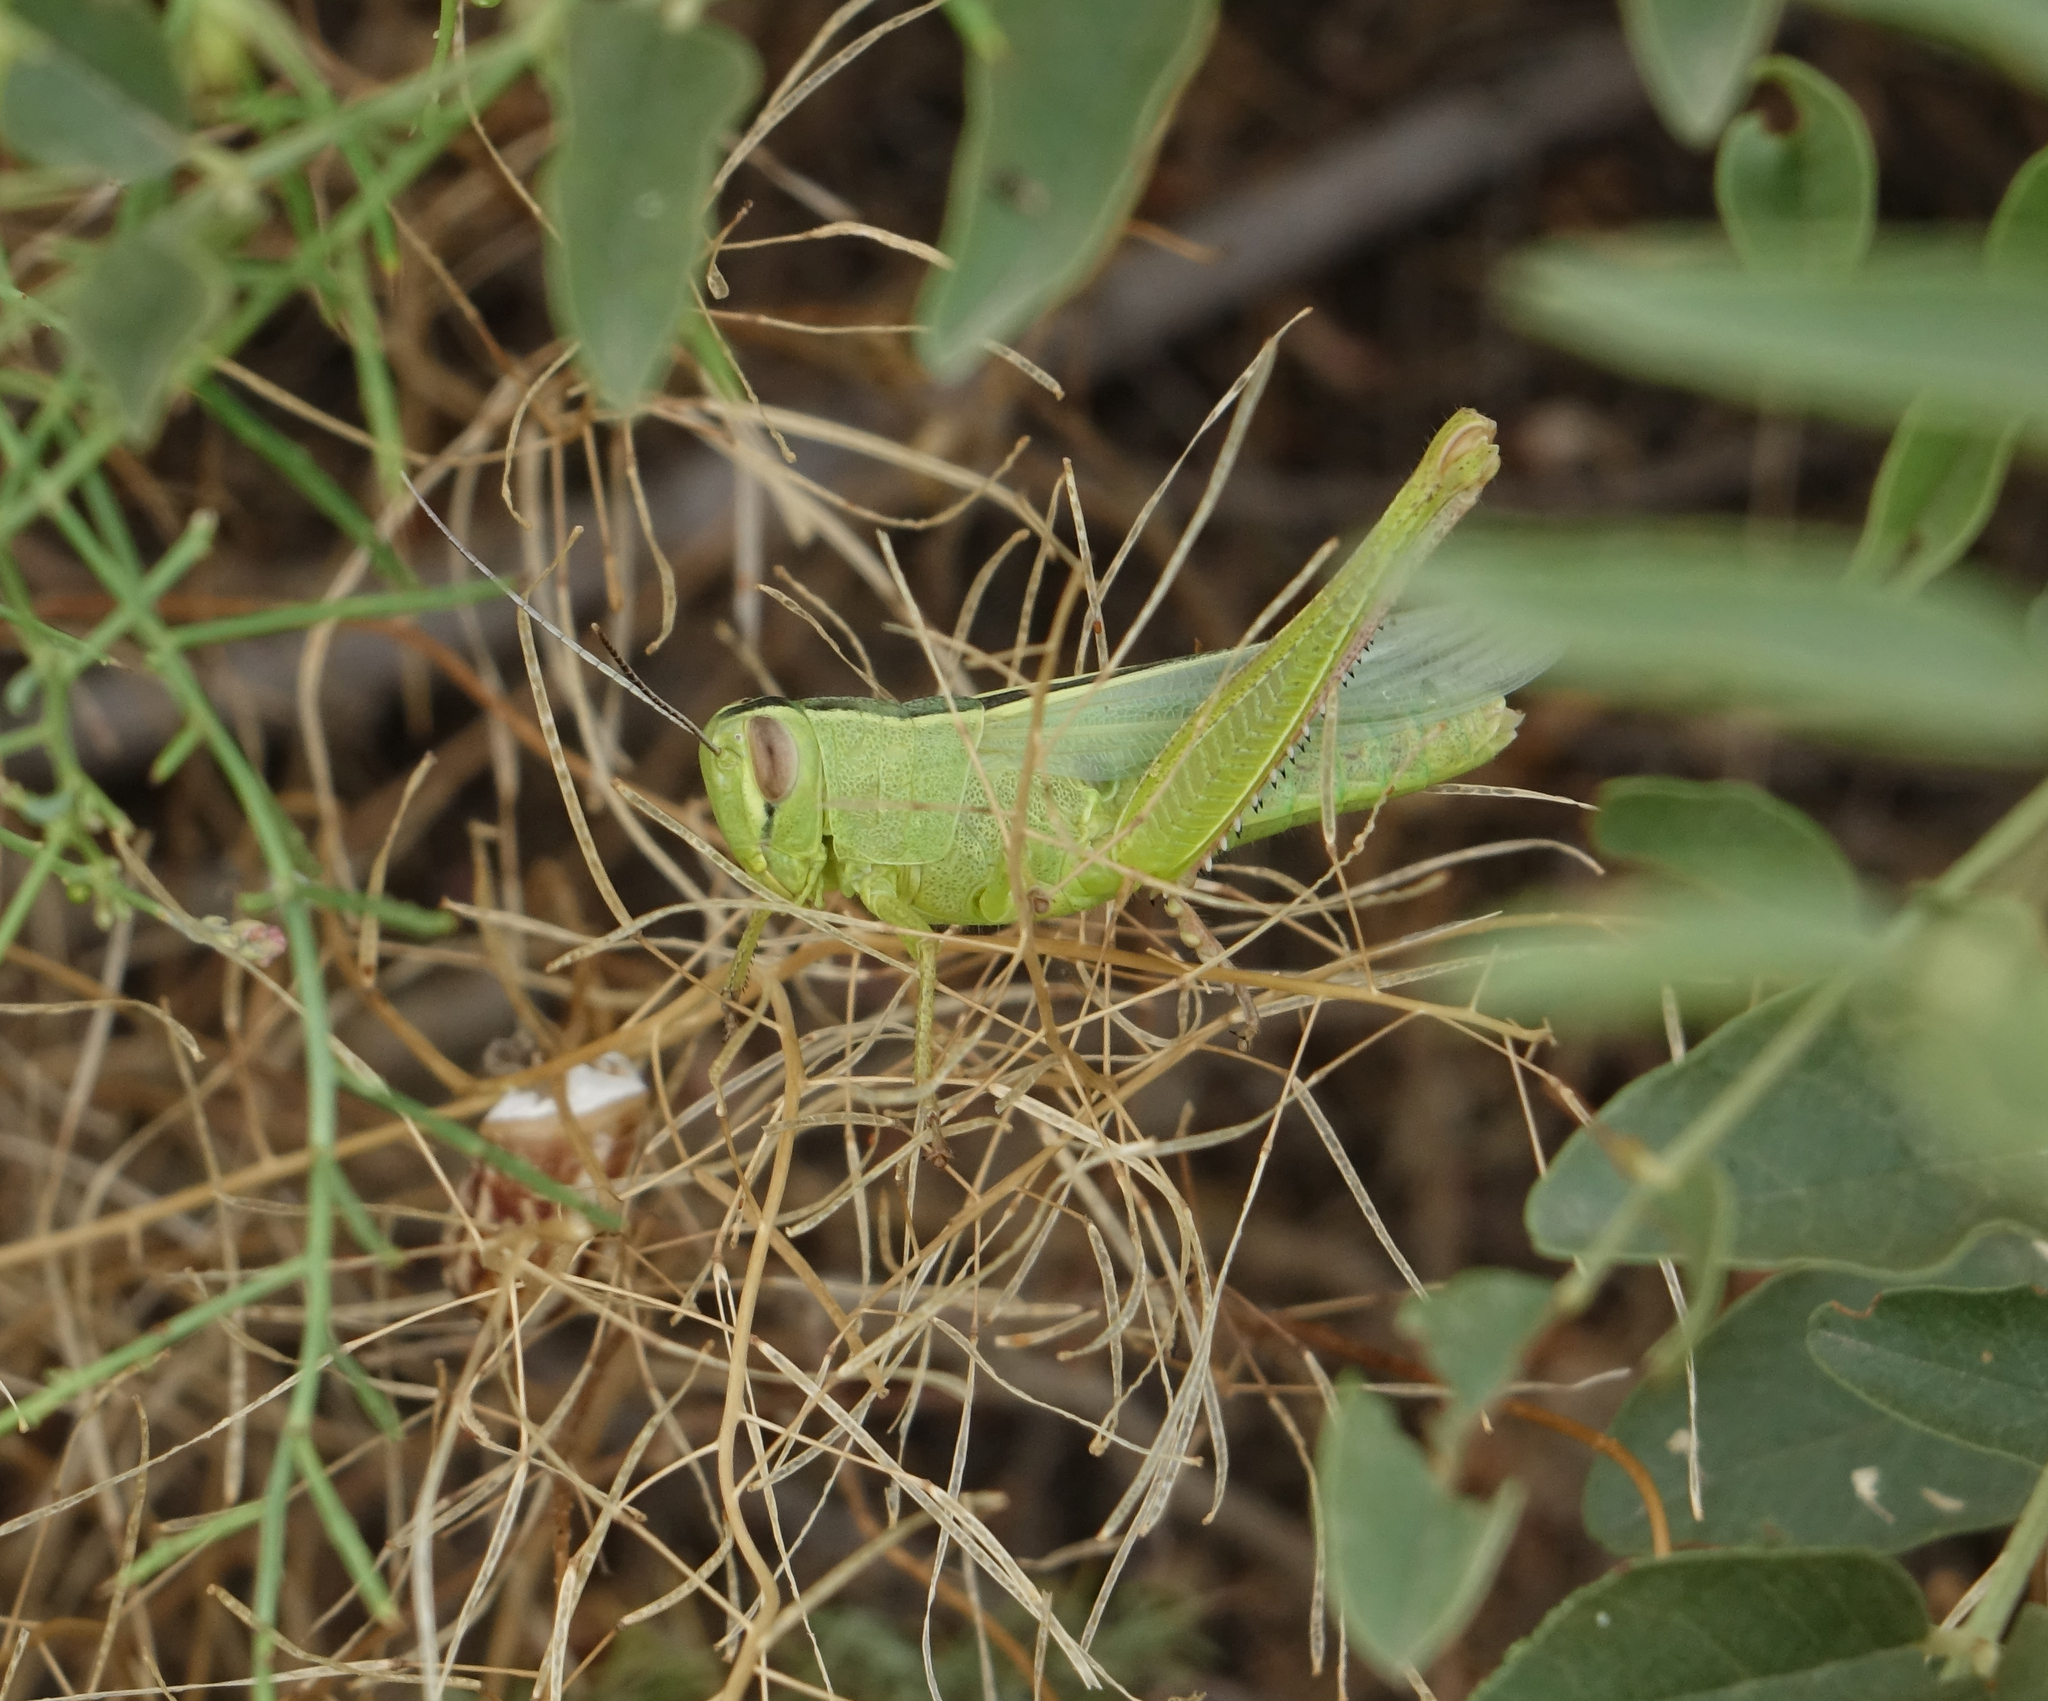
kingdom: Animalia
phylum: Arthropoda
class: Insecta
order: Orthoptera
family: Acrididae
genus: Heteracris
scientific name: Heteracris pterosticha
